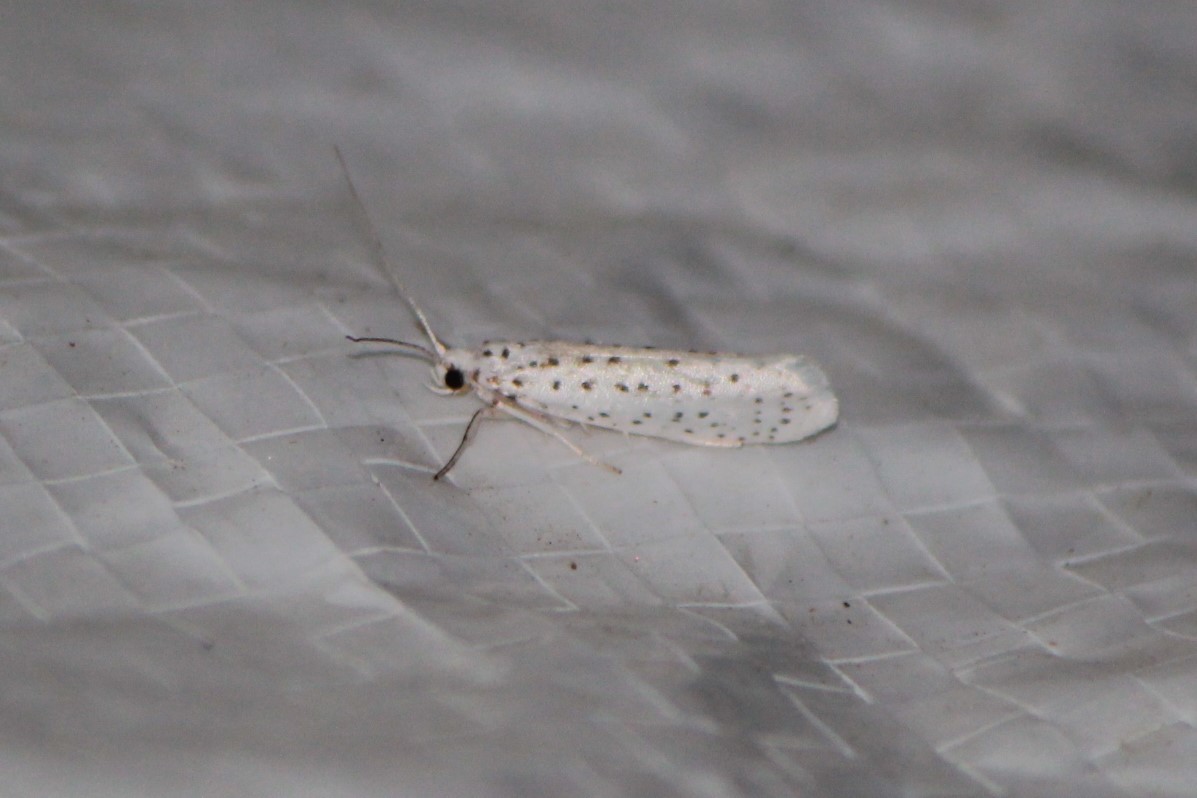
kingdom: Animalia
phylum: Arthropoda
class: Insecta
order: Lepidoptera
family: Yponomeutidae
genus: Yponomeuta
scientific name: Yponomeuta multipunctella
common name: American ermine moth
